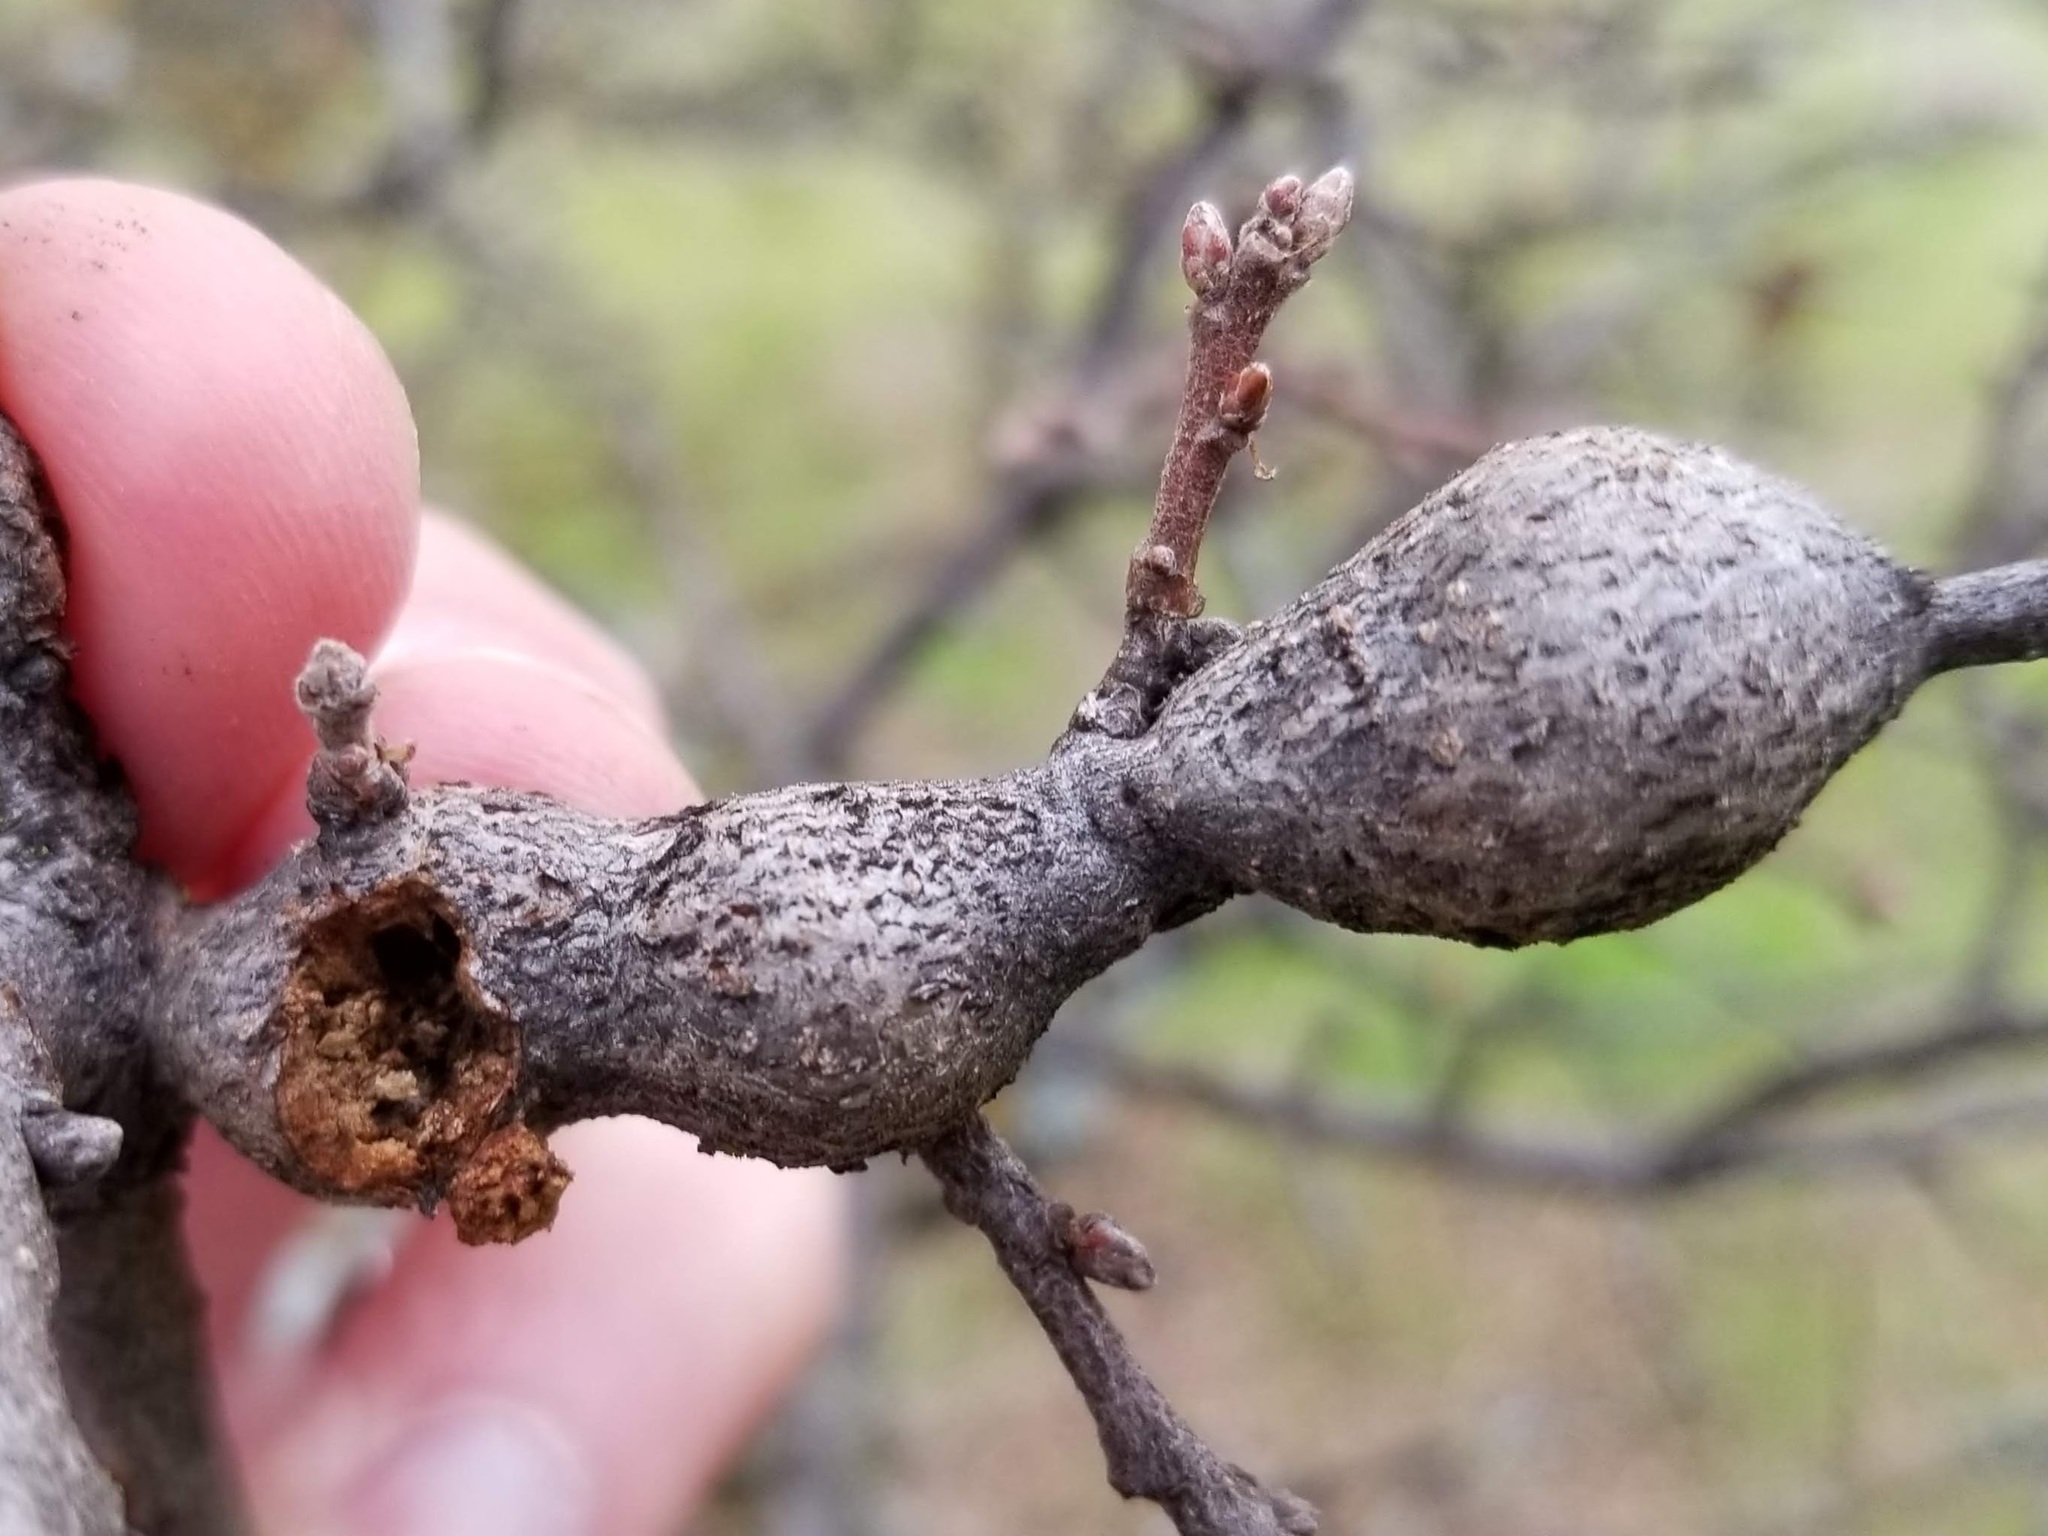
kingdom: Animalia
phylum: Arthropoda
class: Insecta
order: Hymenoptera
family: Cynipidae
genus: Andricus
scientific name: Andricus
